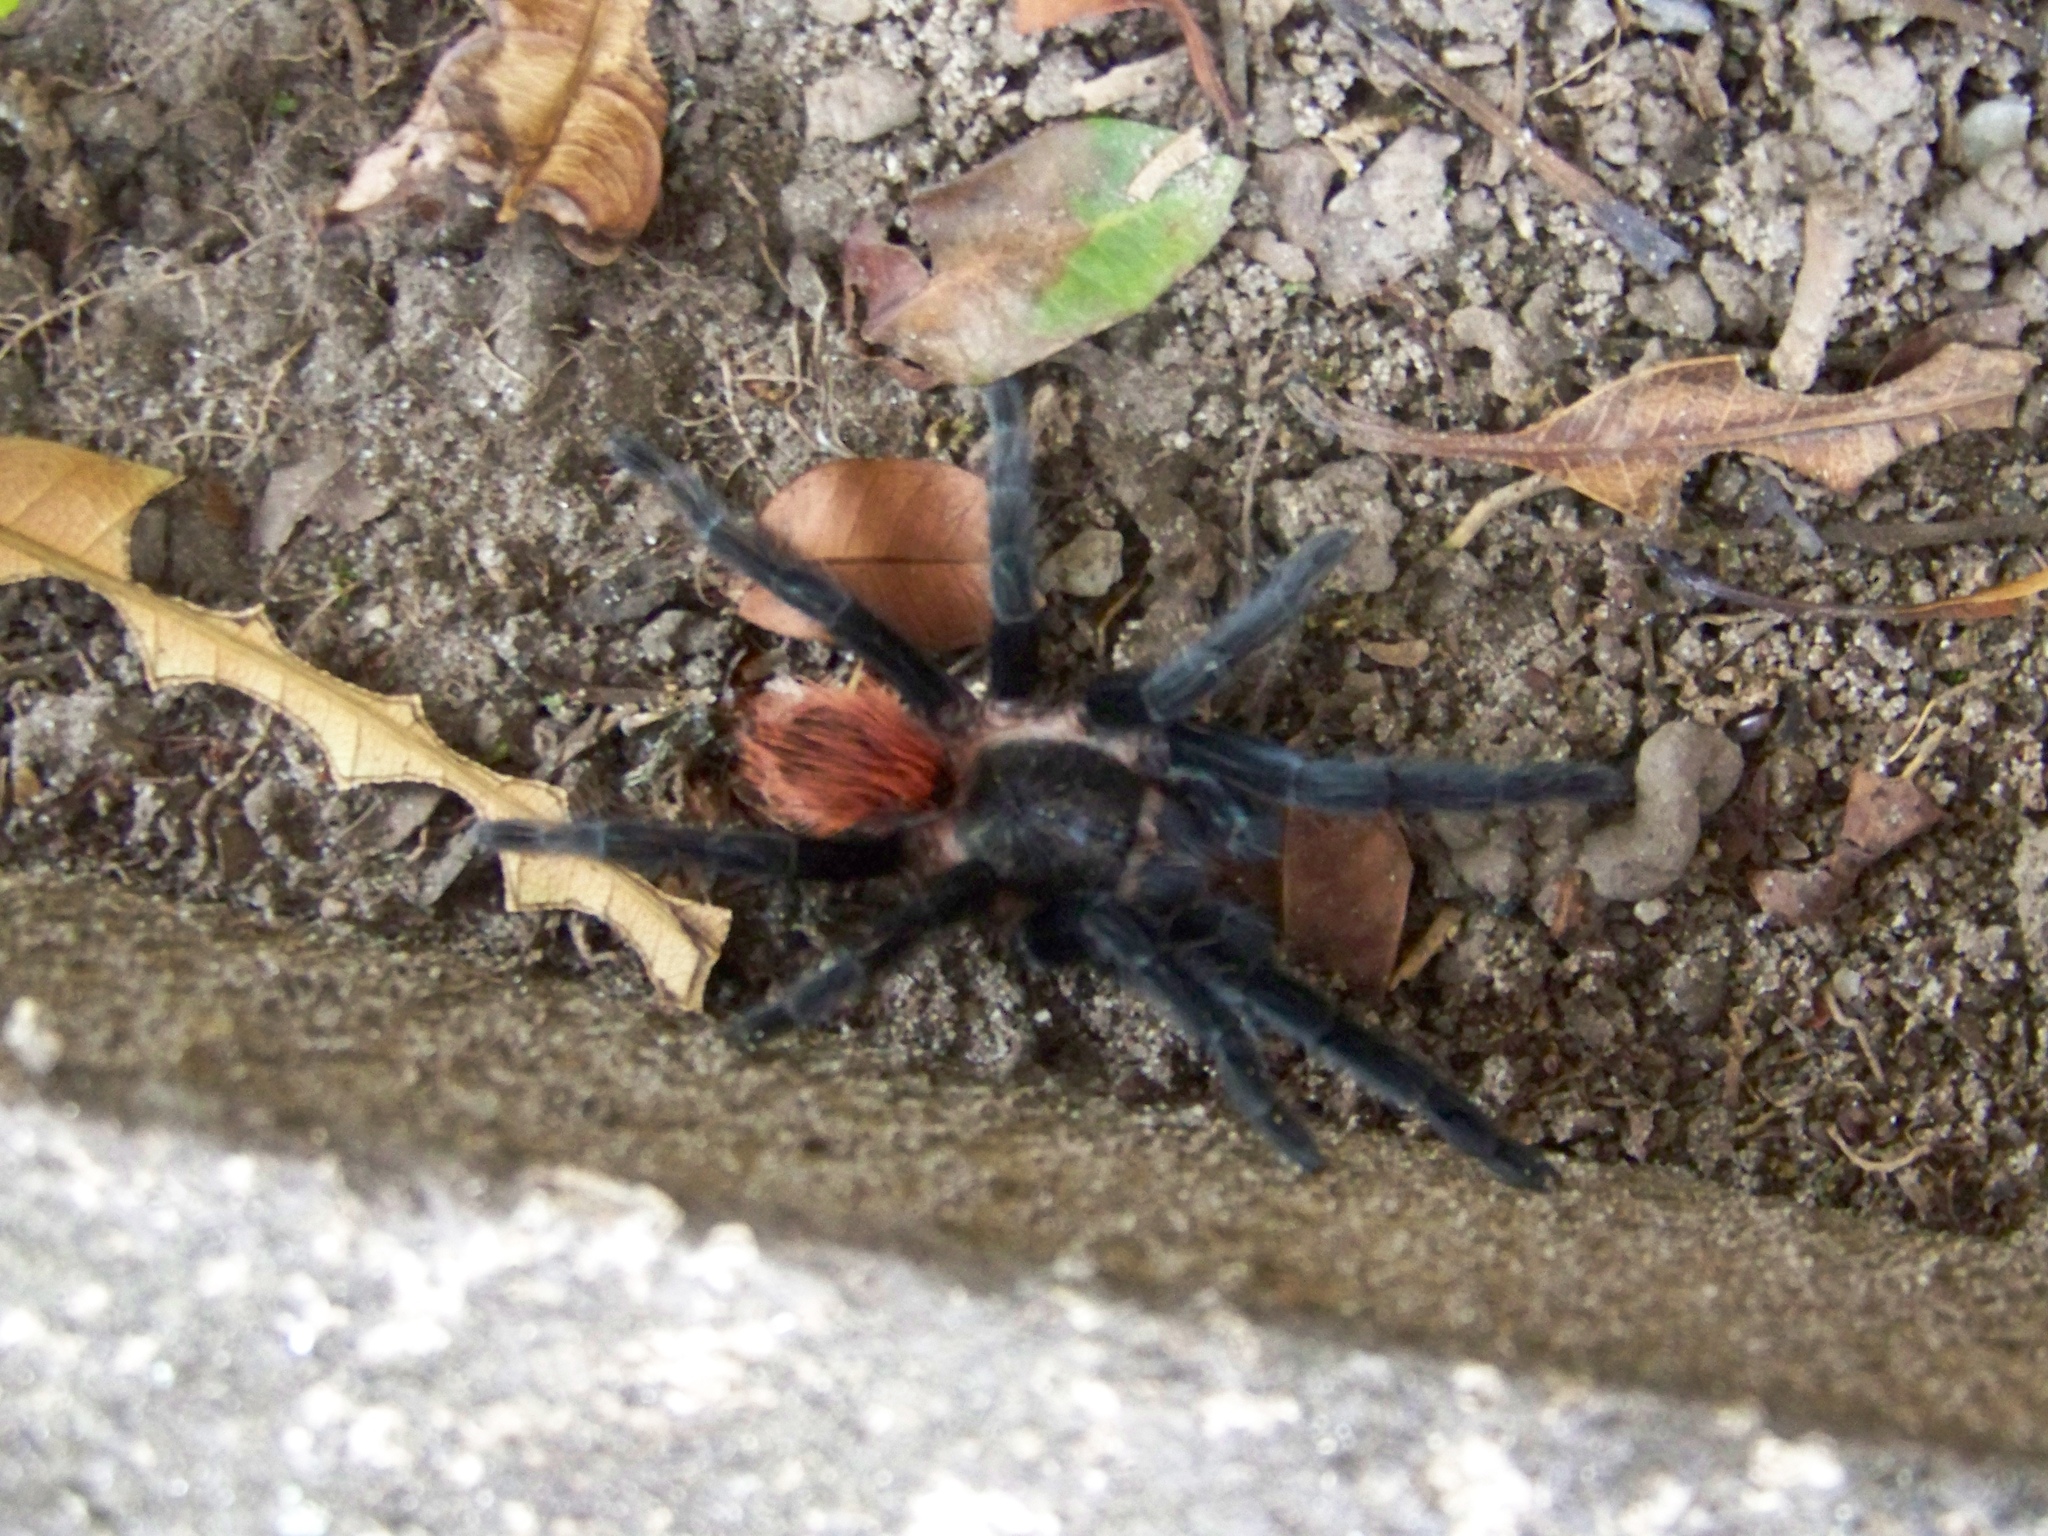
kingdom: Animalia
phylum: Arthropoda
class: Arachnida
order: Araneae
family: Theraphosidae
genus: Tliltocatl
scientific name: Tliltocatl kahlenbergi
